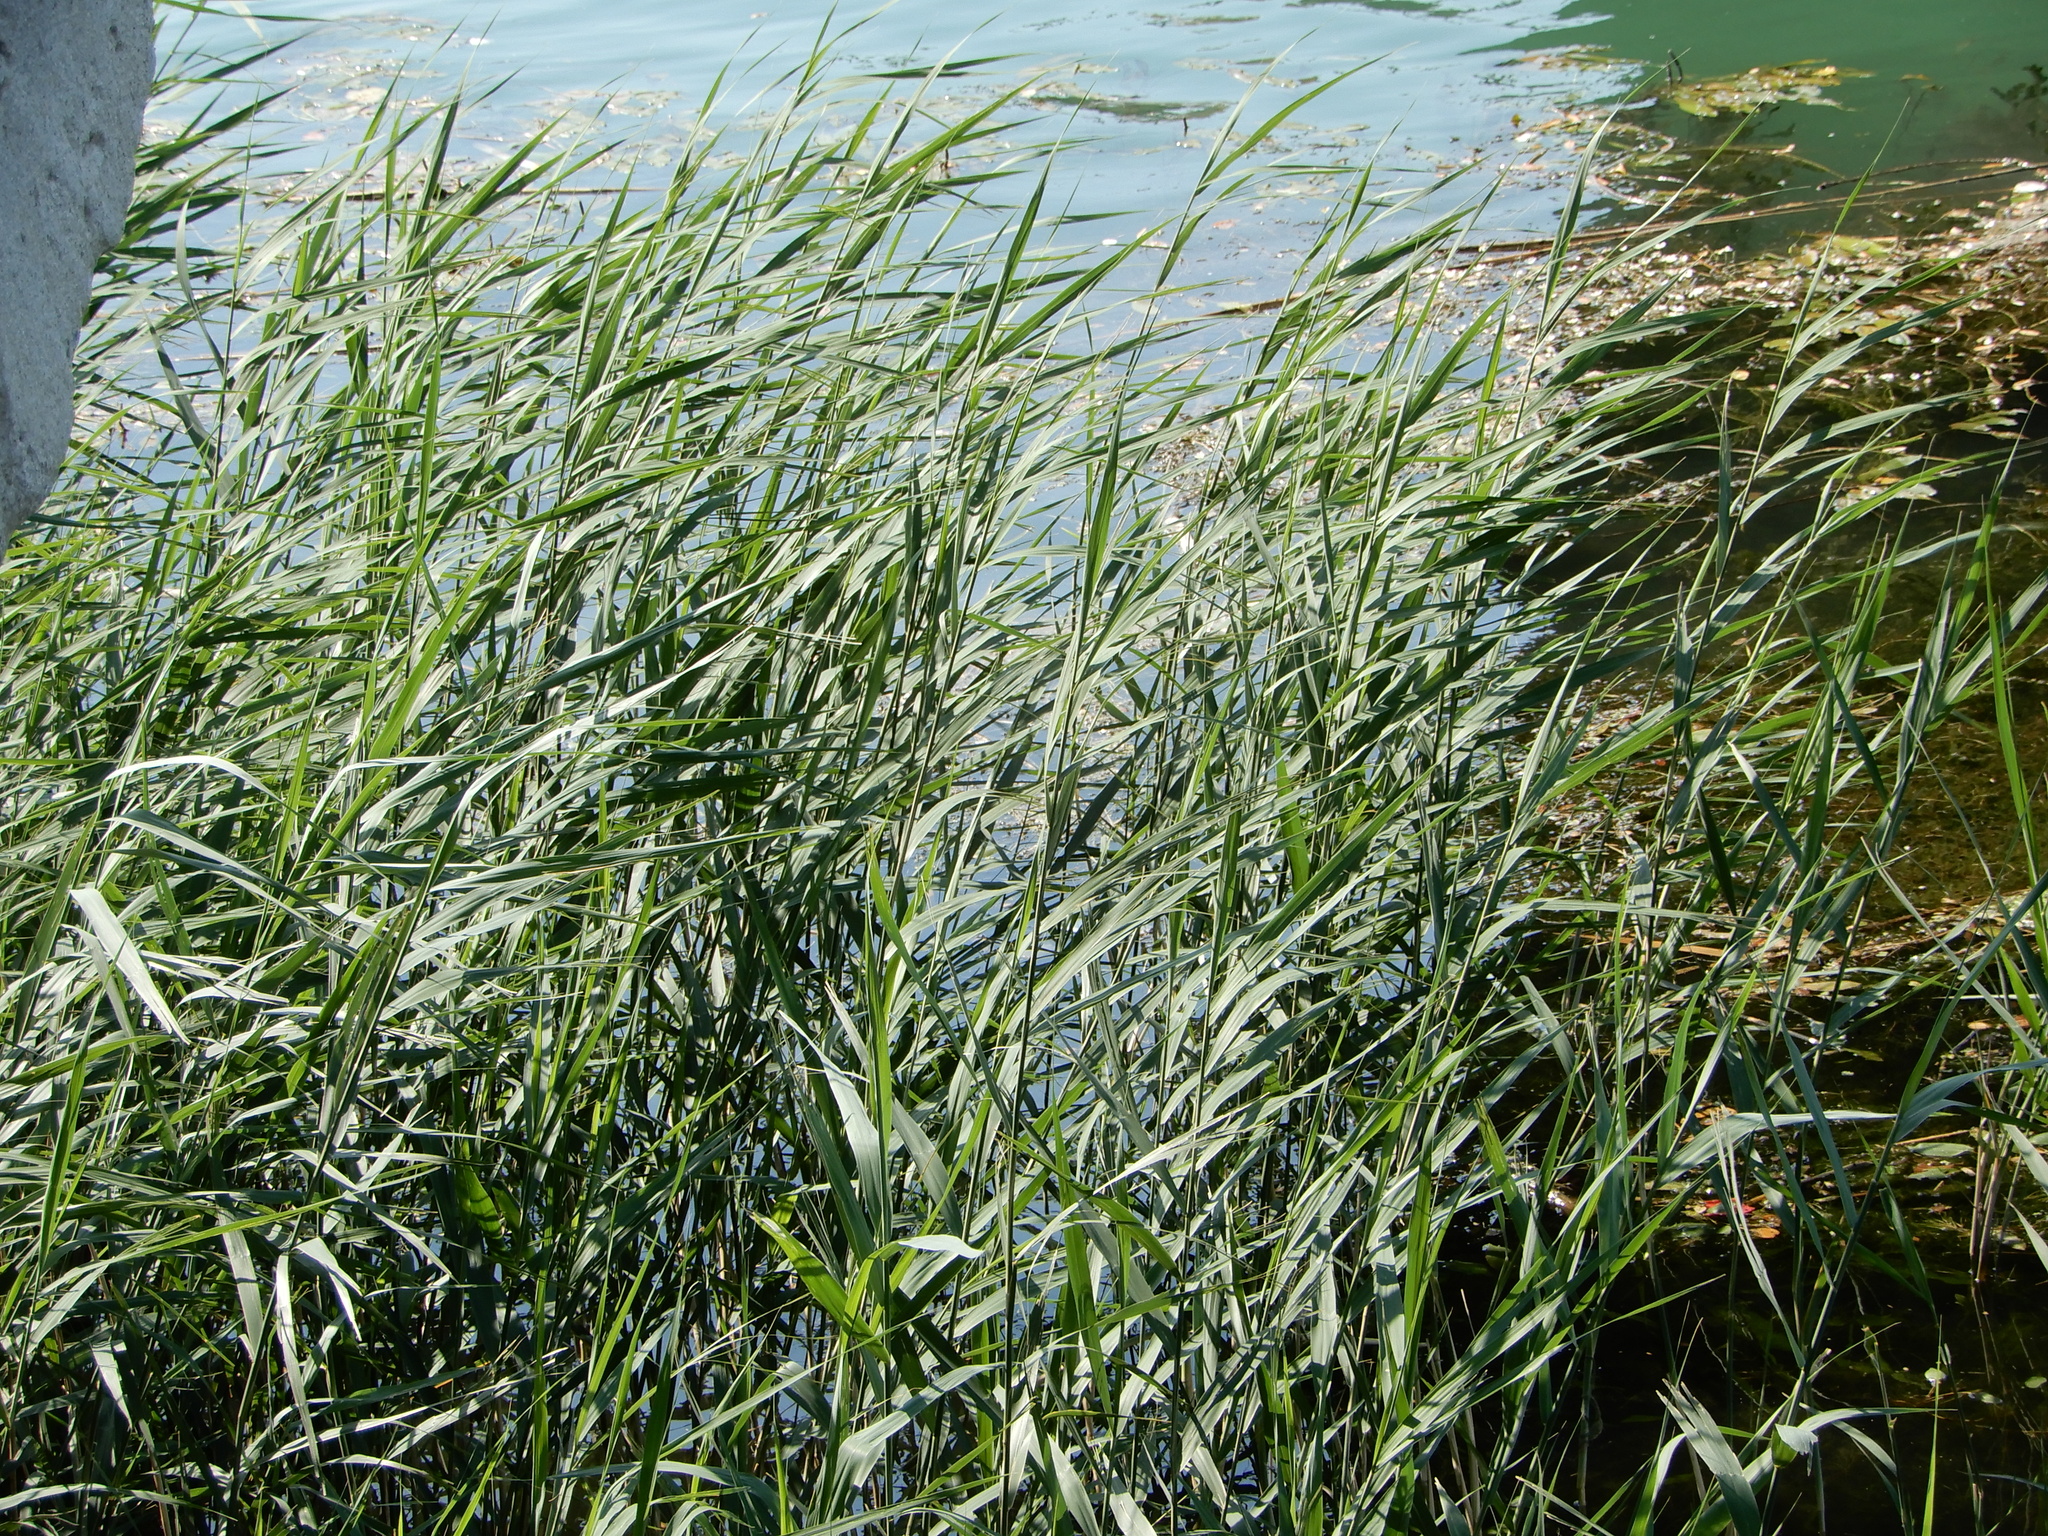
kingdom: Plantae
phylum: Tracheophyta
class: Liliopsida
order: Poales
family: Poaceae
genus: Phragmites
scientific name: Phragmites australis
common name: Common reed
